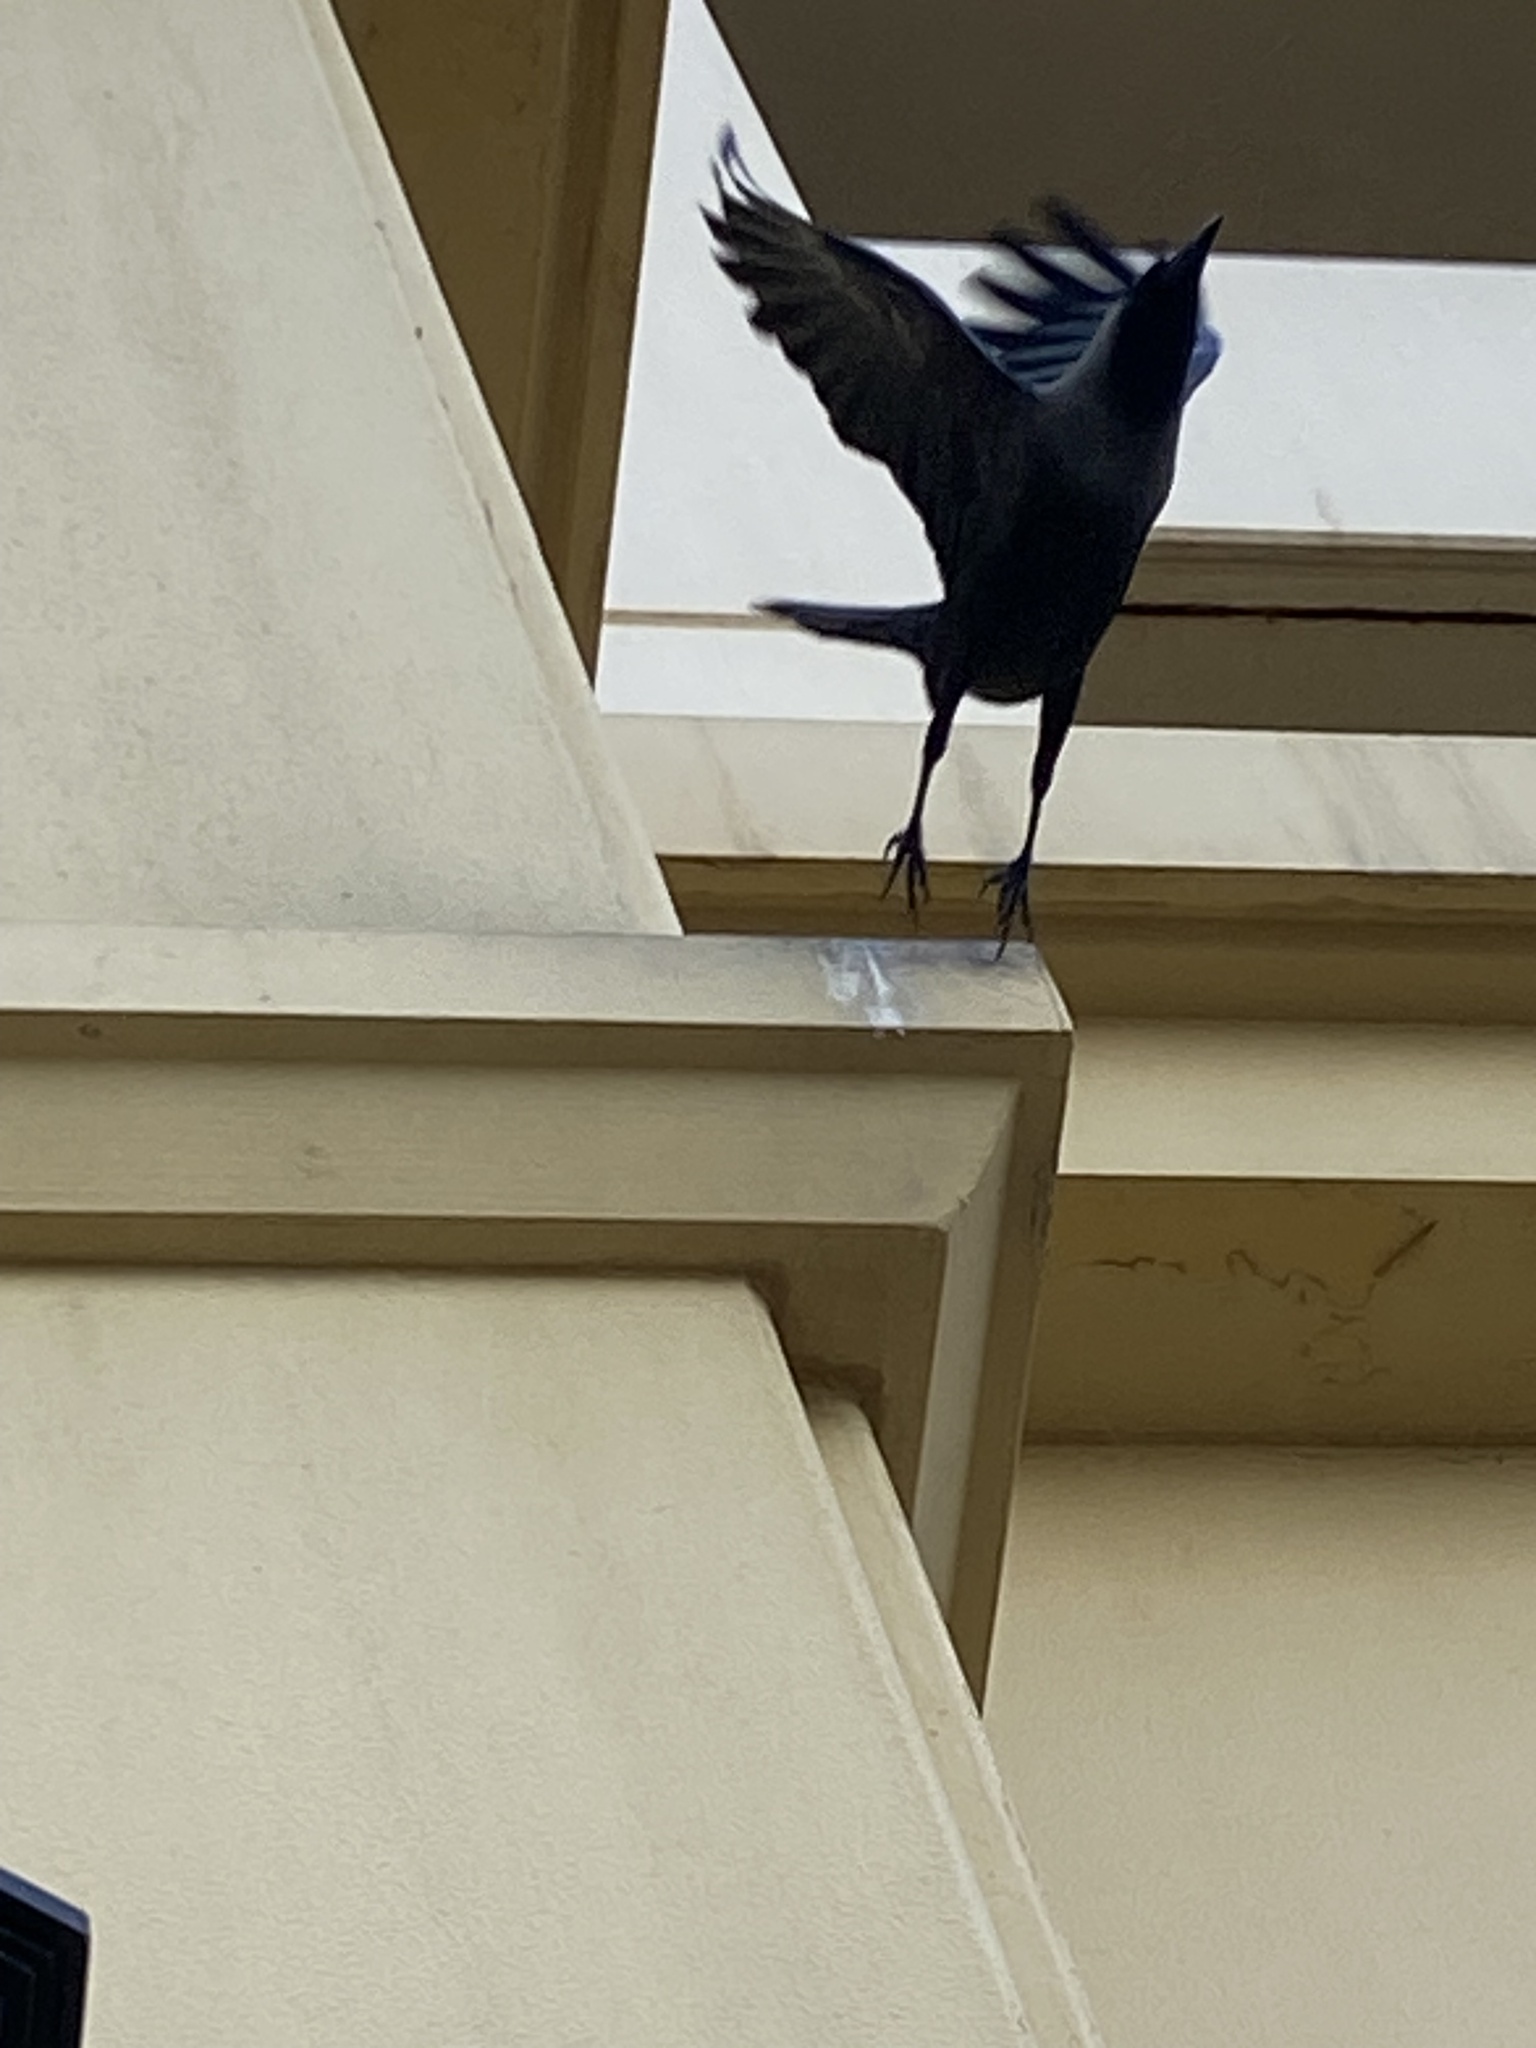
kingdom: Animalia
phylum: Chordata
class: Aves
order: Passeriformes
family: Corvidae
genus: Corvus
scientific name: Corvus splendens
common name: House crow
